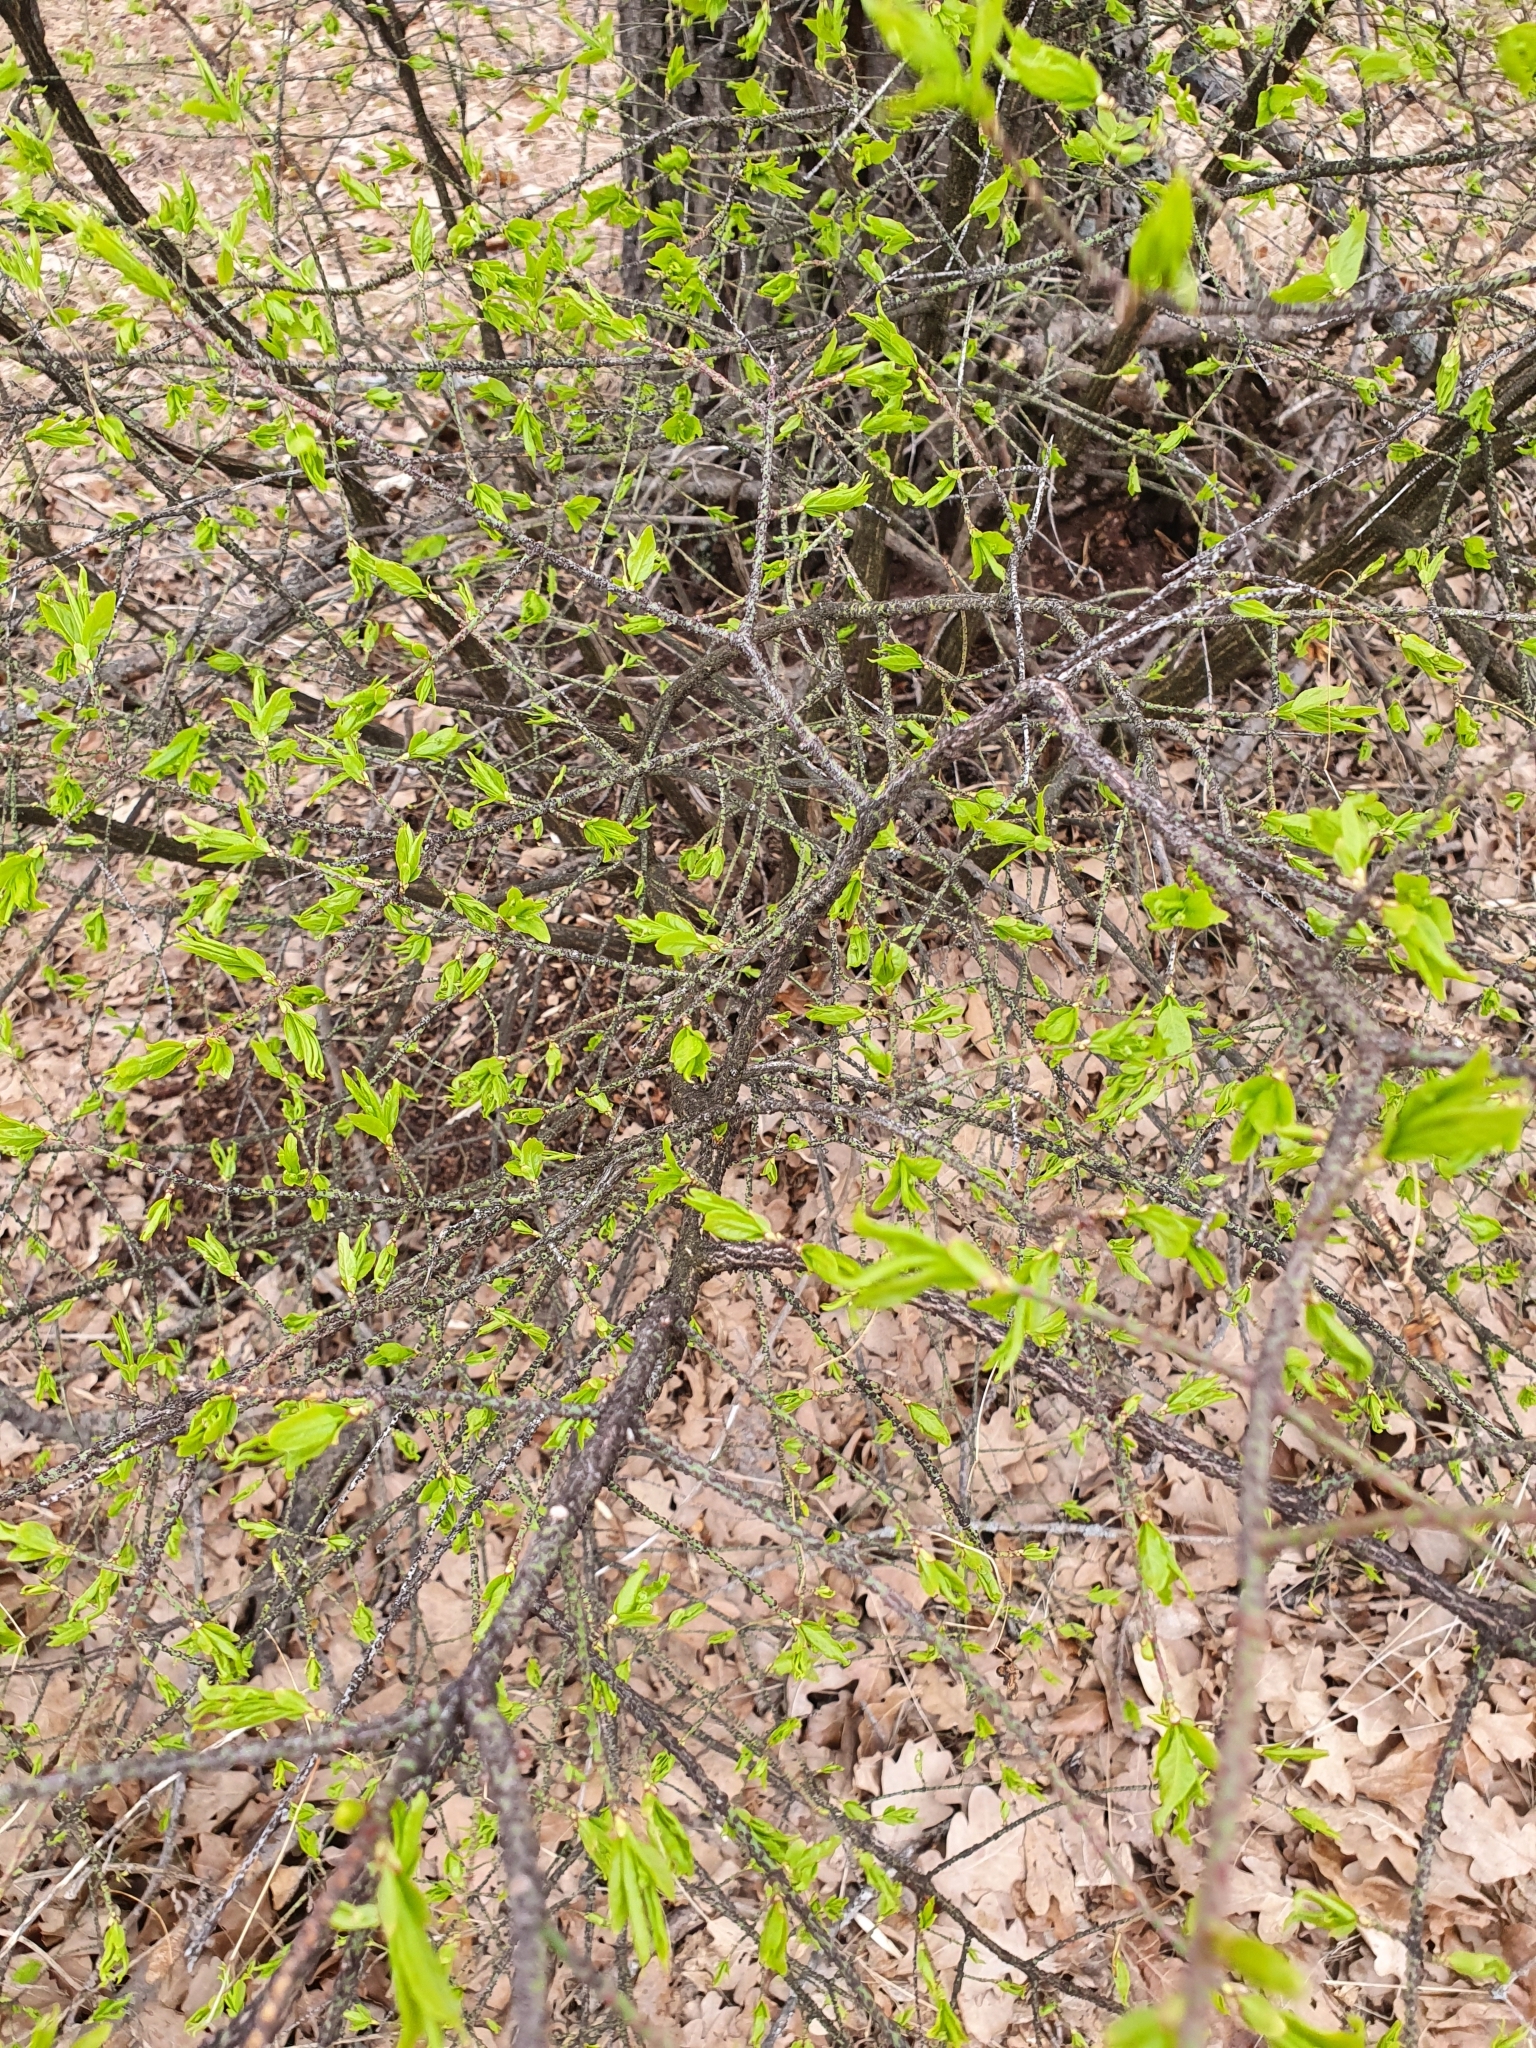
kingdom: Plantae
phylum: Tracheophyta
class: Magnoliopsida
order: Celastrales
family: Celastraceae
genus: Euonymus
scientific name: Euonymus verrucosus
